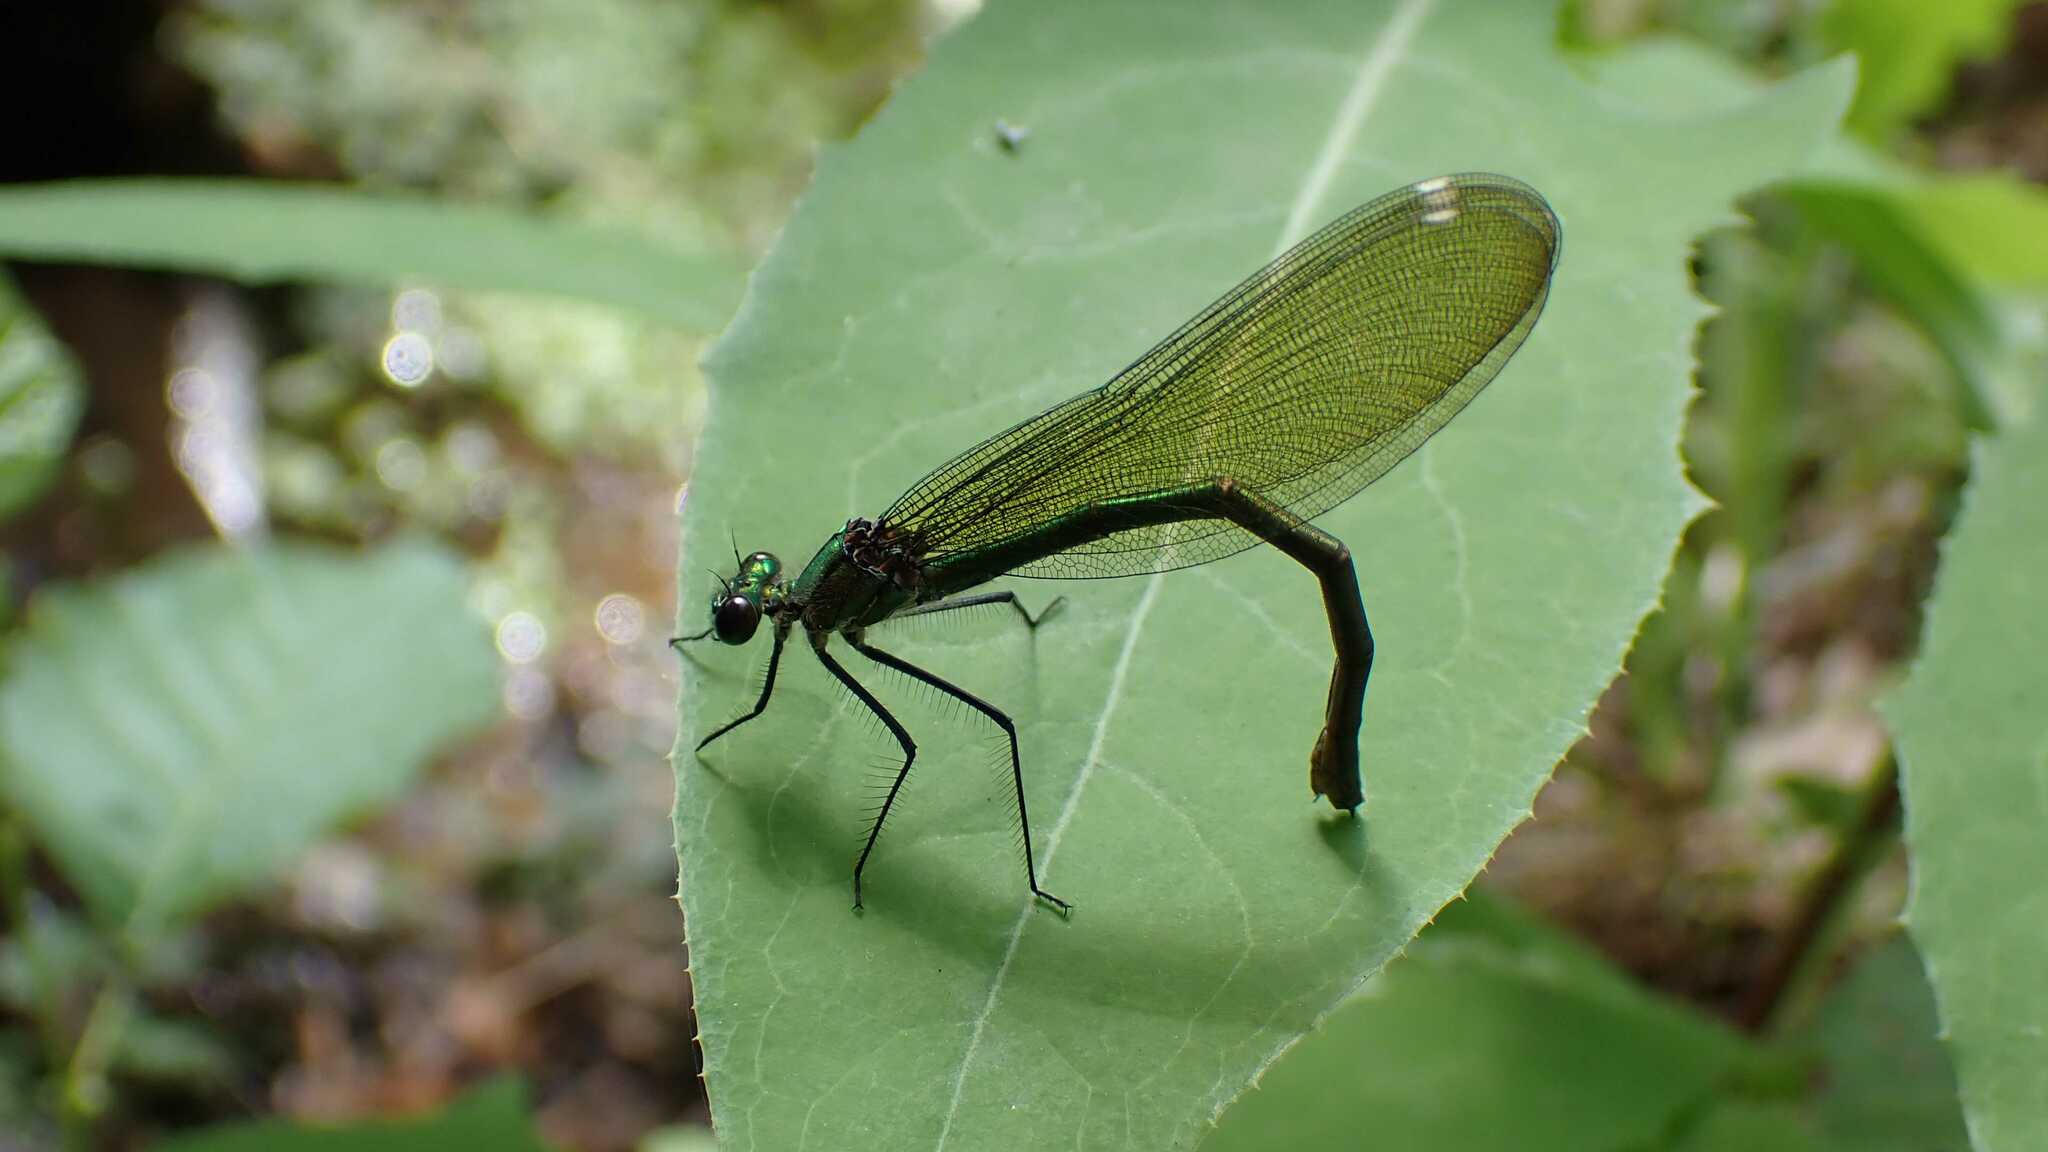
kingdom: Animalia
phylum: Arthropoda
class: Insecta
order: Odonata
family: Calopterygidae
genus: Calopteryx
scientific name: Calopteryx splendens
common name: Banded demoiselle
